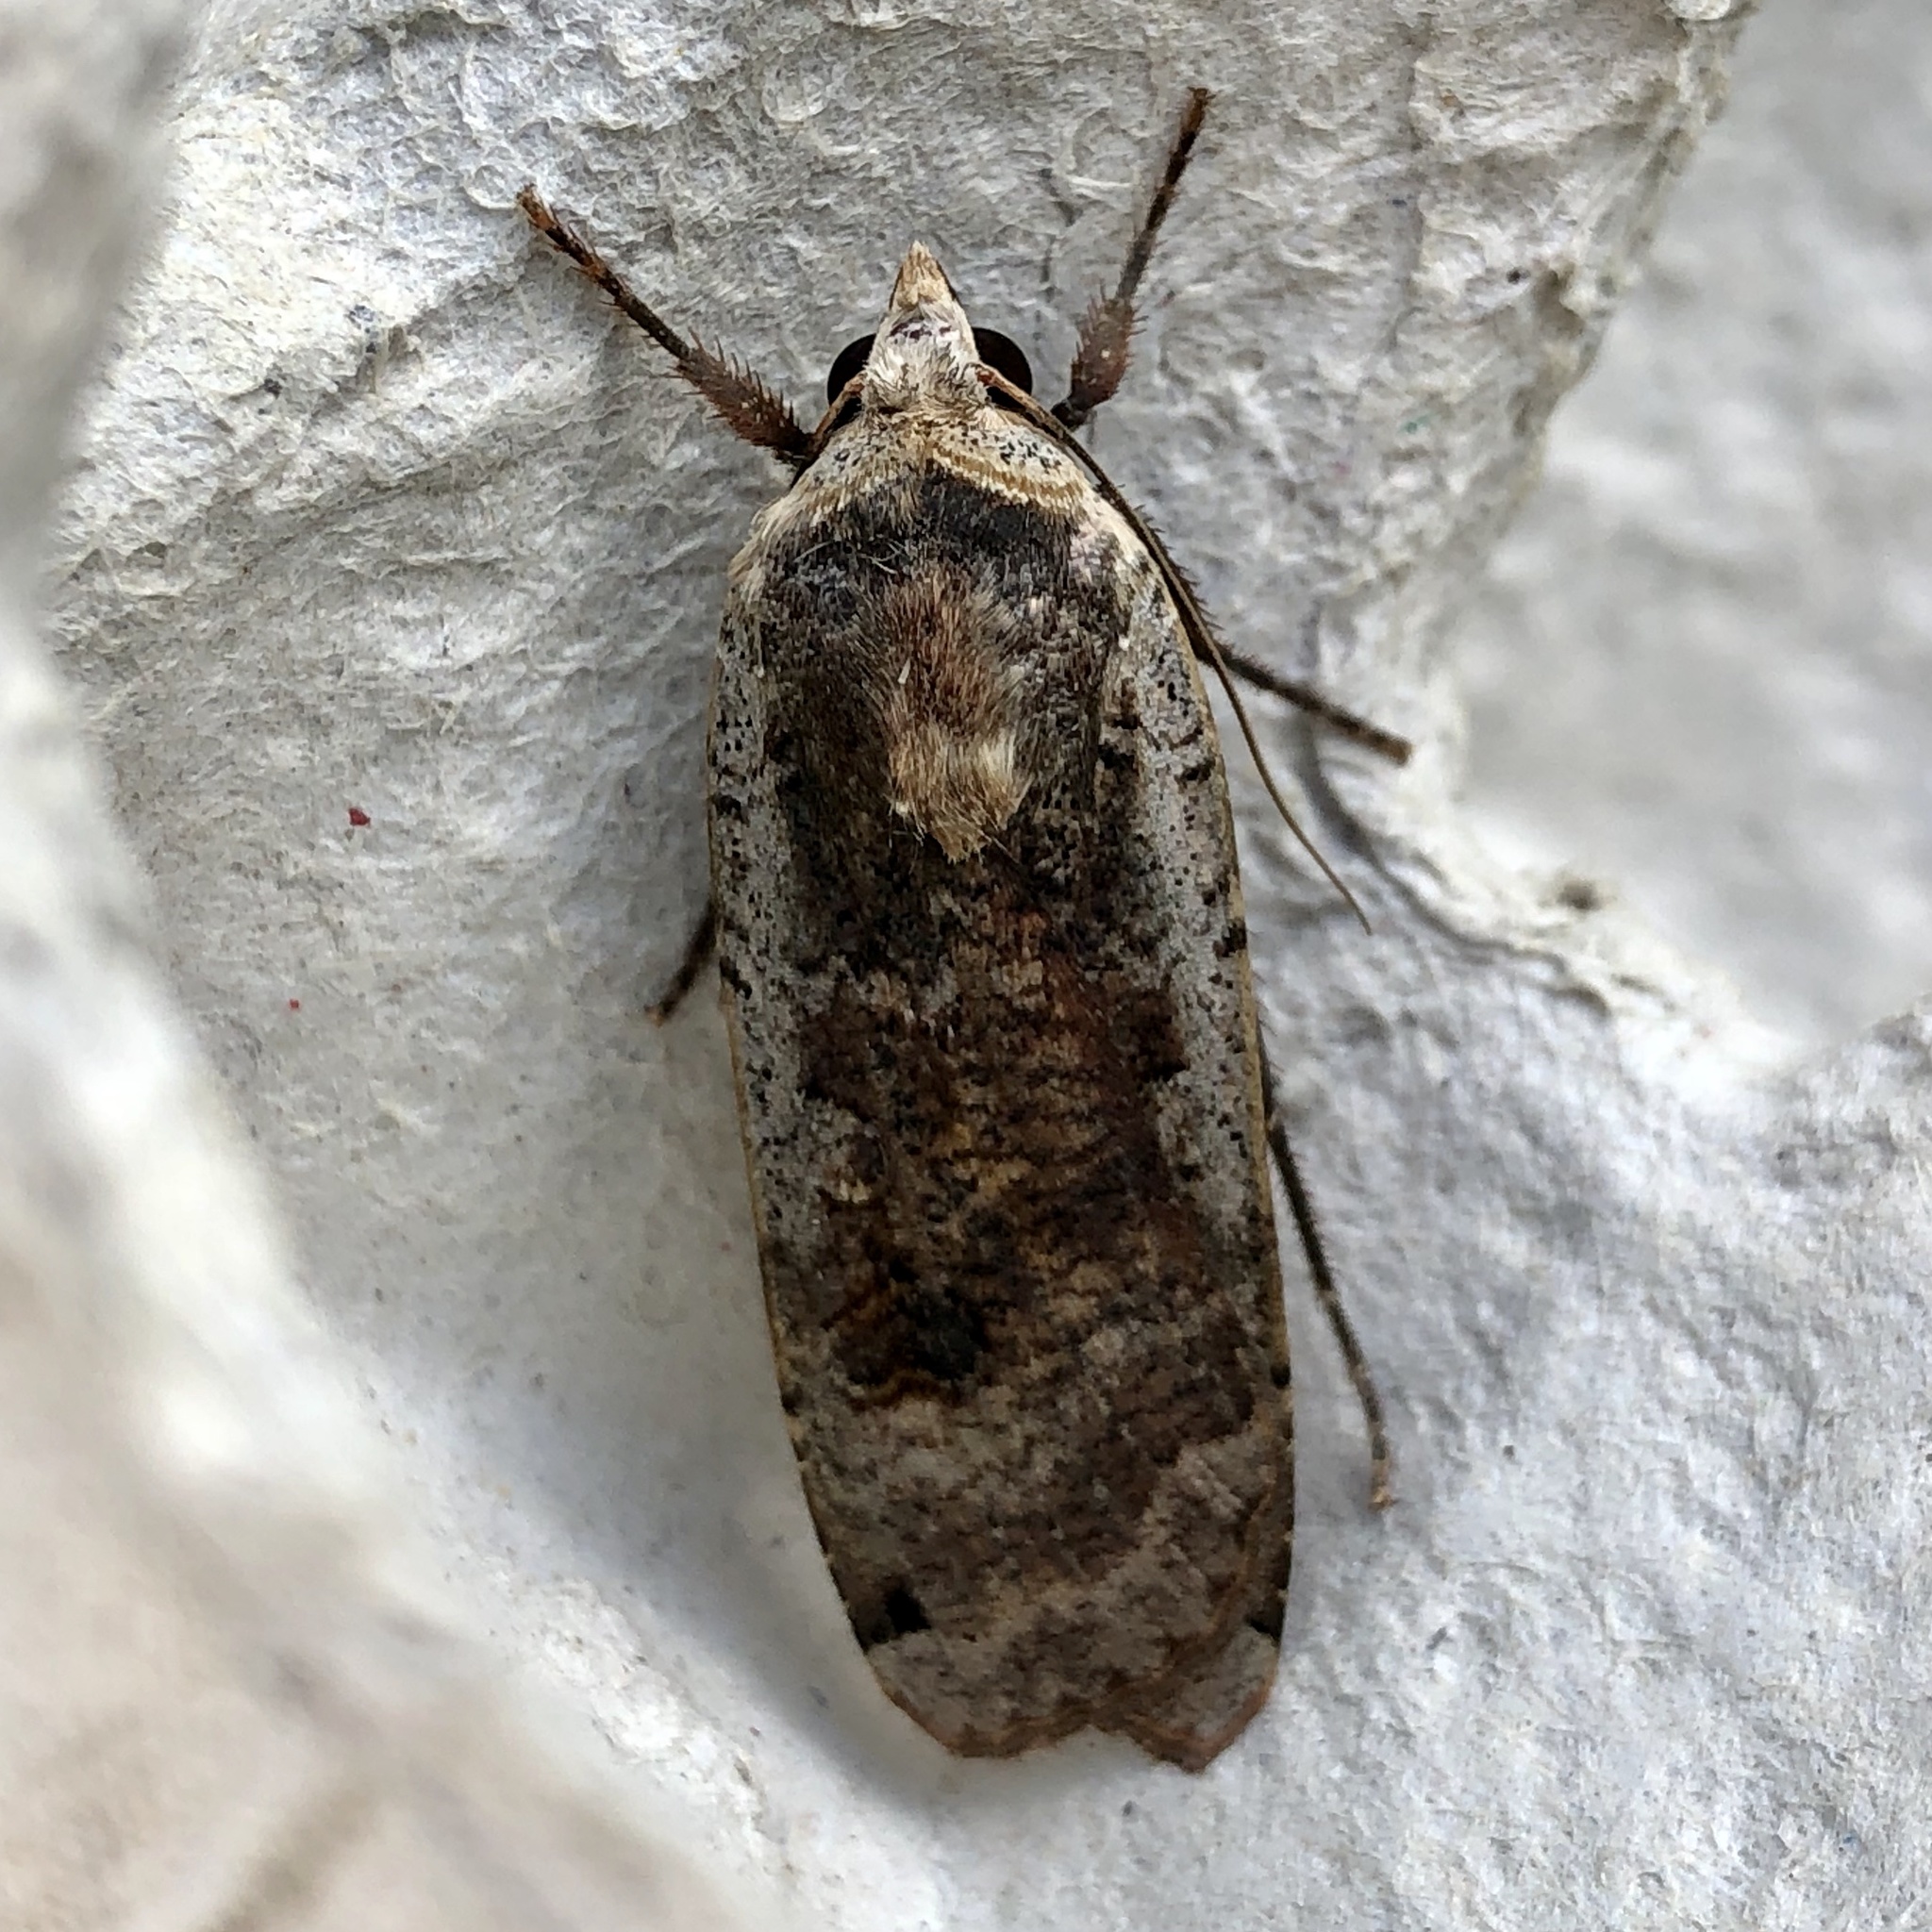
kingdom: Animalia
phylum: Arthropoda
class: Insecta
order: Lepidoptera
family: Noctuidae
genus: Noctua
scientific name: Noctua pronuba
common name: Large yellow underwing
